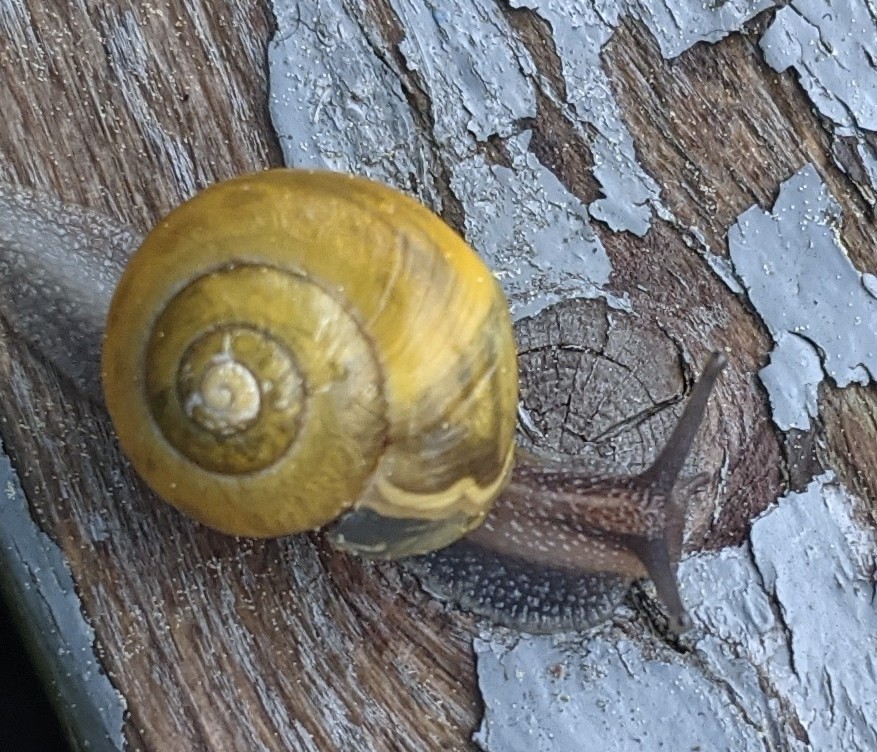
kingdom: Animalia
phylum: Mollusca
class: Gastropoda
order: Stylommatophora
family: Helicidae
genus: Cepaea
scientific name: Cepaea
